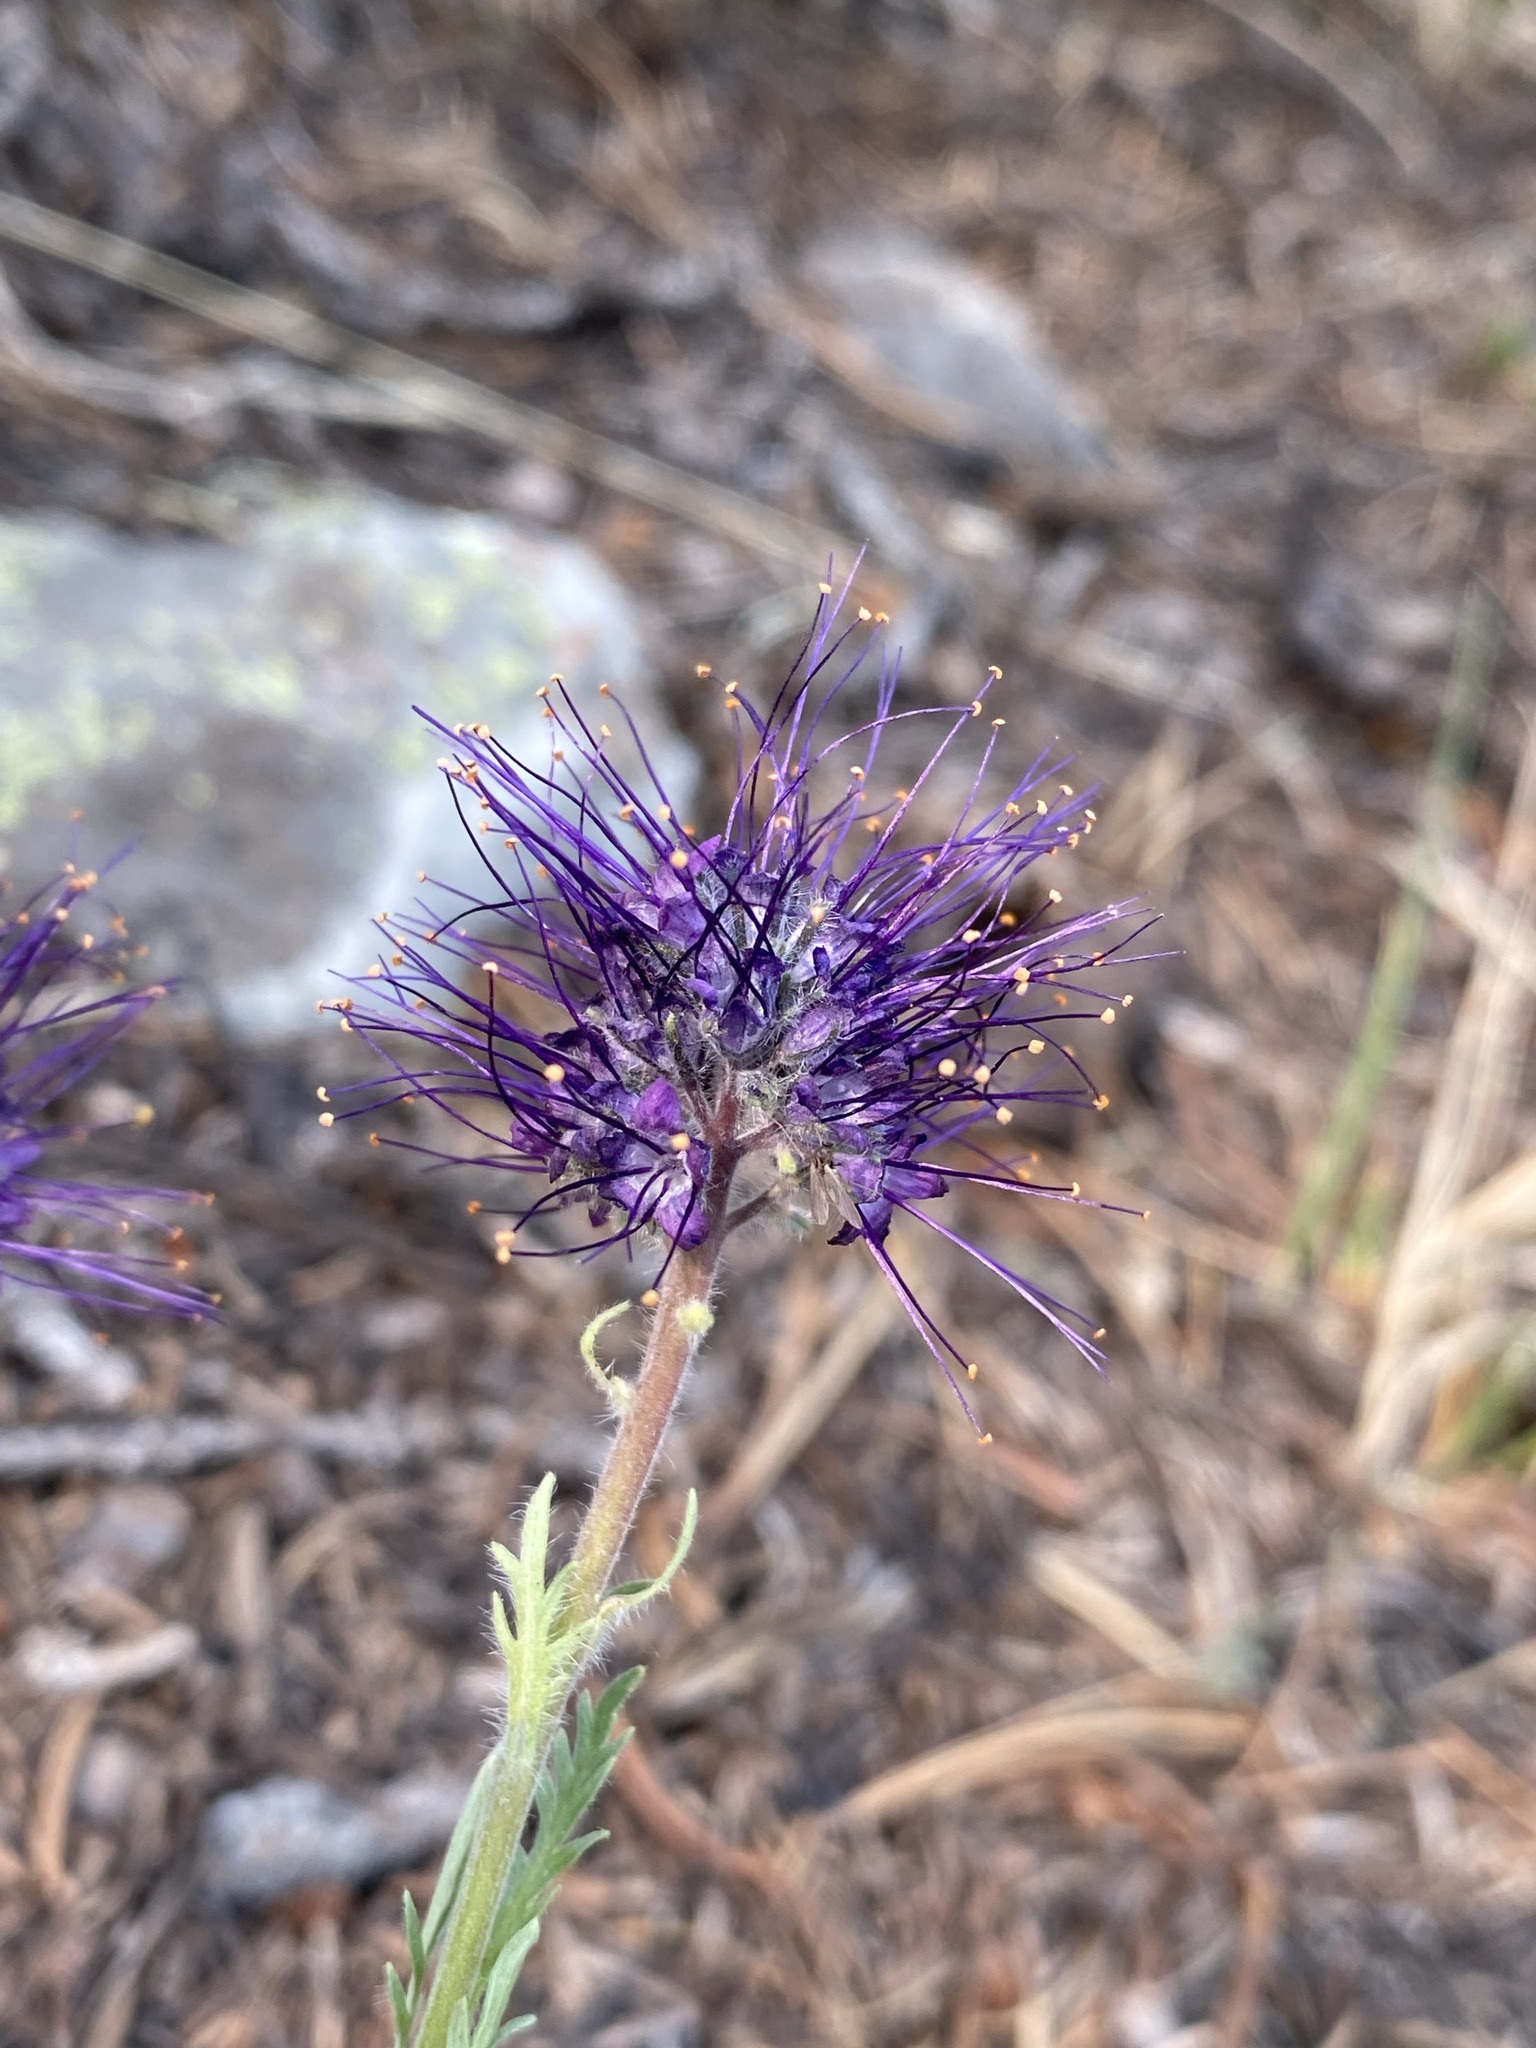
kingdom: Plantae
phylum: Tracheophyta
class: Magnoliopsida
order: Boraginales
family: Hydrophyllaceae
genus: Phacelia
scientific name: Phacelia sericea
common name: Silky phacelia
